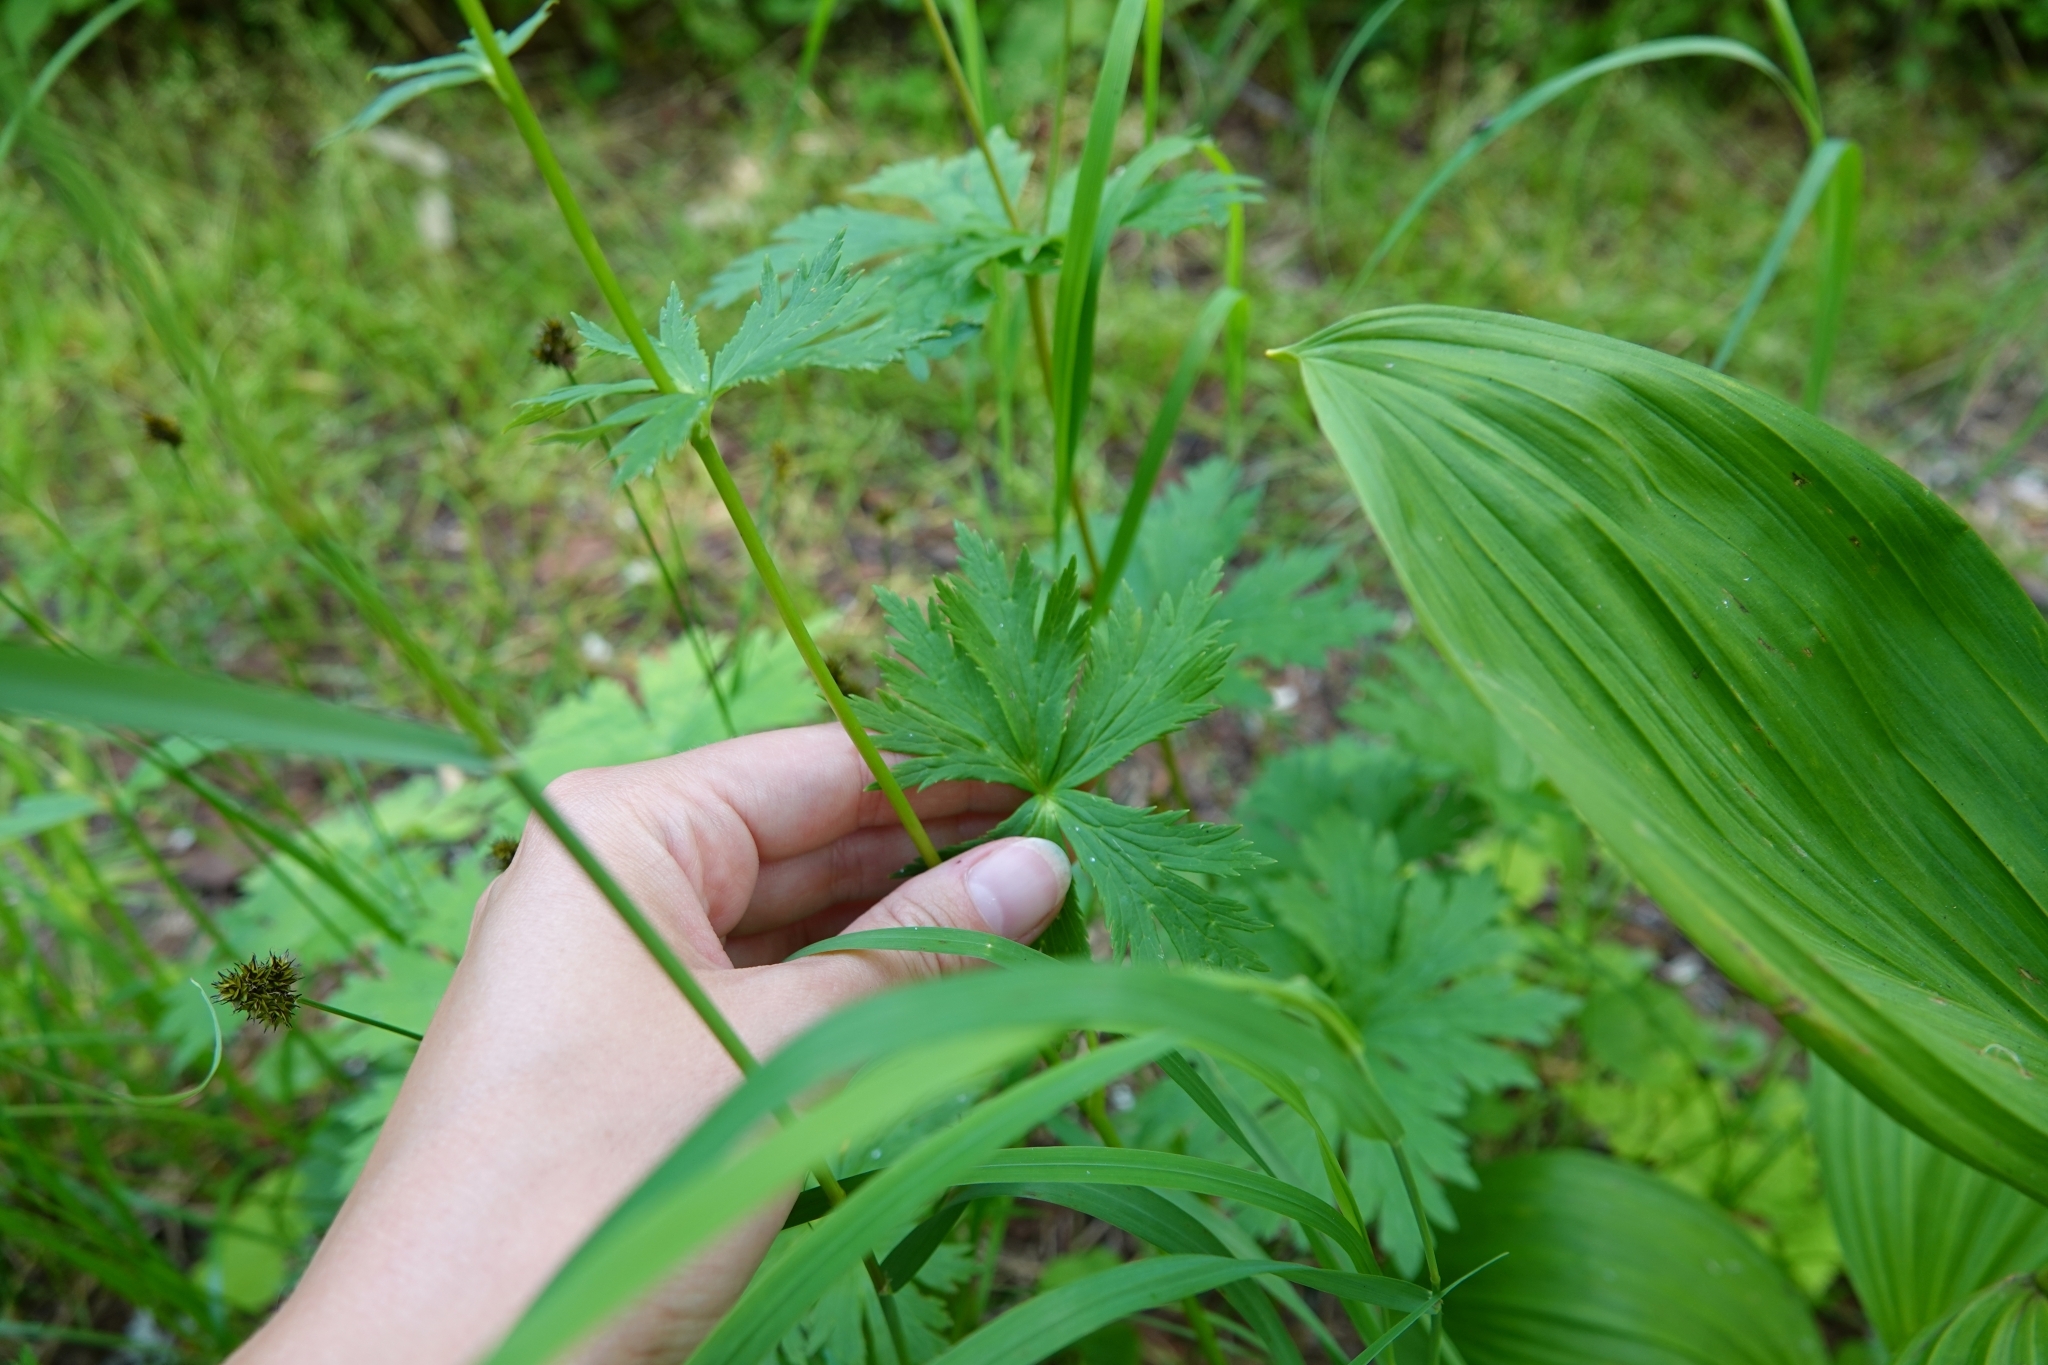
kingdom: Plantae
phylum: Tracheophyta
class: Magnoliopsida
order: Ranunculales
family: Ranunculaceae
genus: Trollius
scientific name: Trollius riederianus
